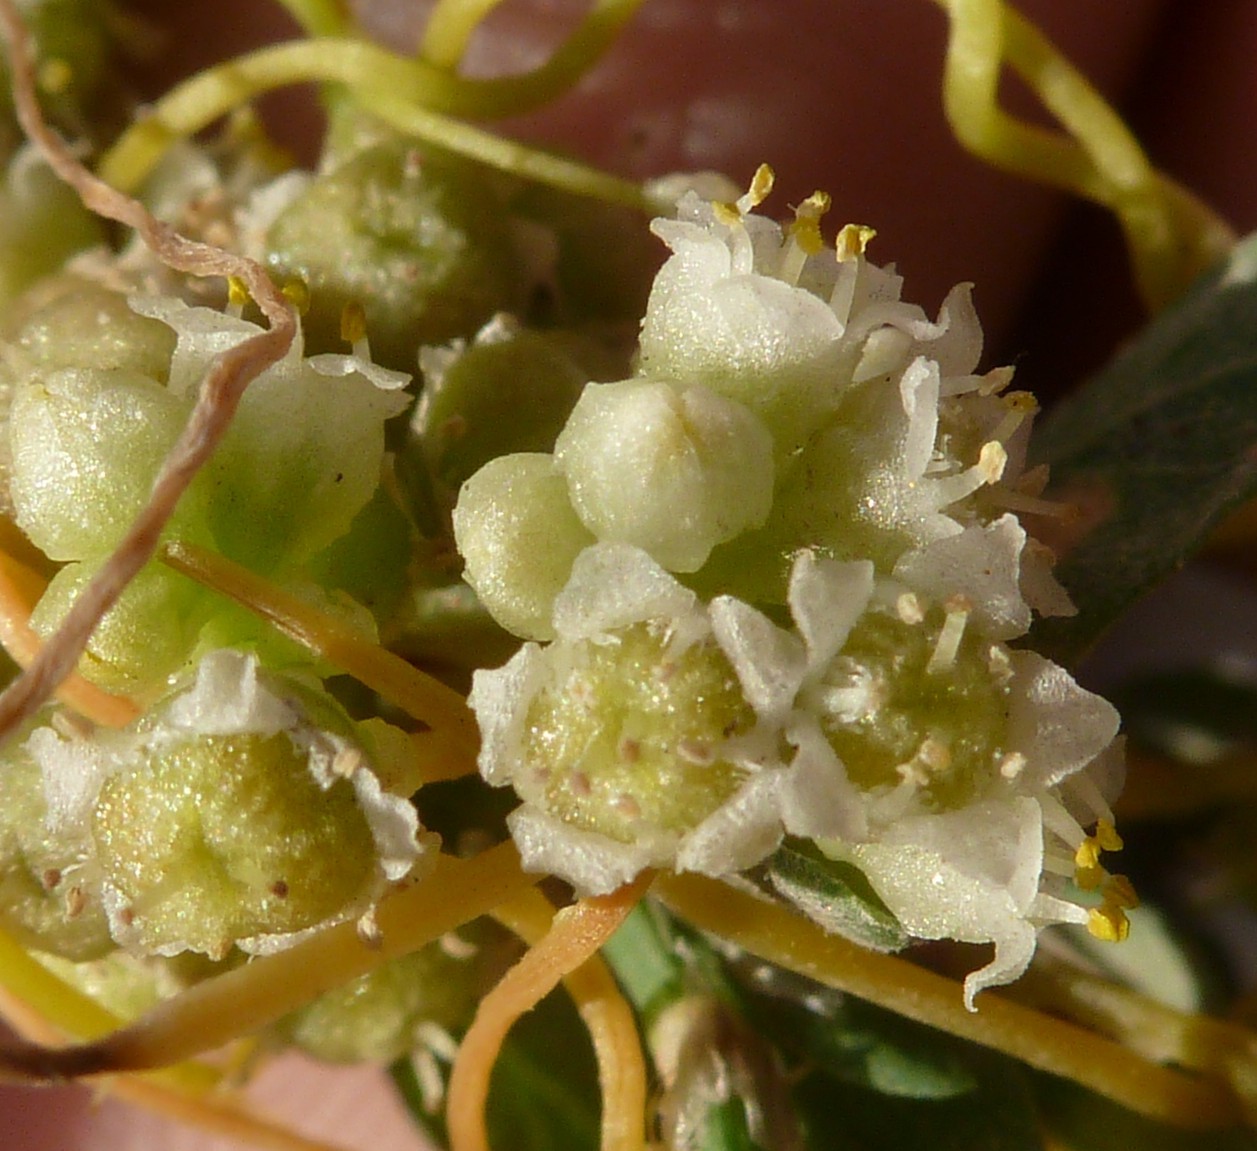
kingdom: Plantae
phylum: Tracheophyta
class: Magnoliopsida
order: Solanales
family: Convolvulaceae
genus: Cuscuta
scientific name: Cuscuta campestris
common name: Yellow dodder
